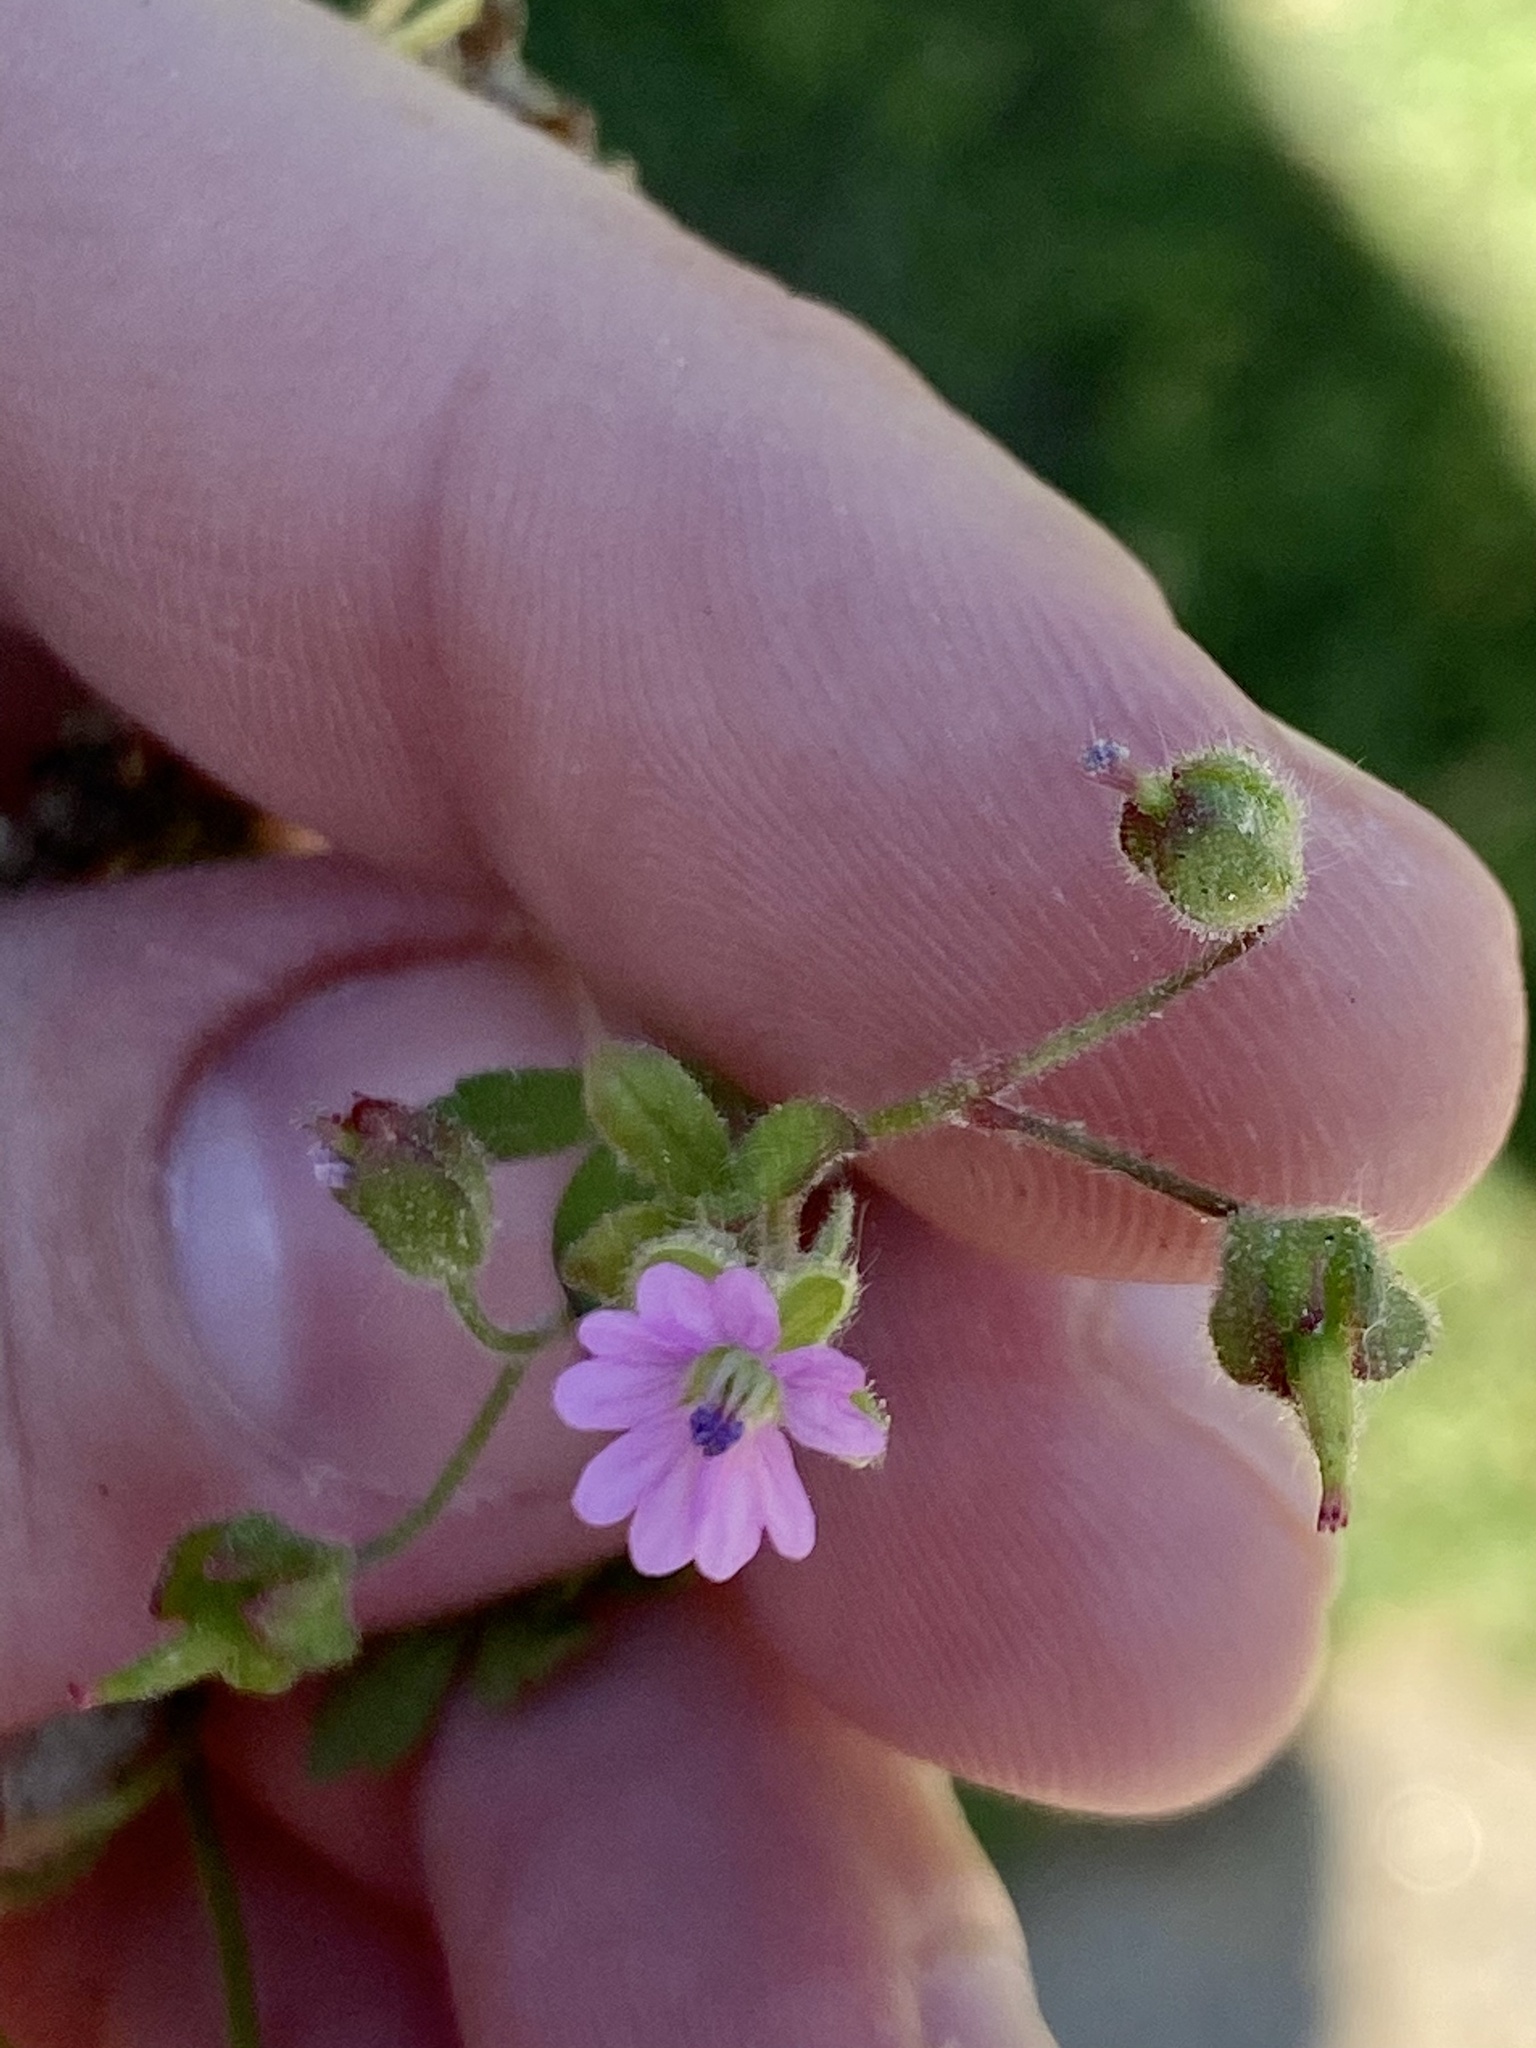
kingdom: Plantae
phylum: Tracheophyta
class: Magnoliopsida
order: Geraniales
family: Geraniaceae
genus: Geranium
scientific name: Geranium molle
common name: Dove's-foot crane's-bill
